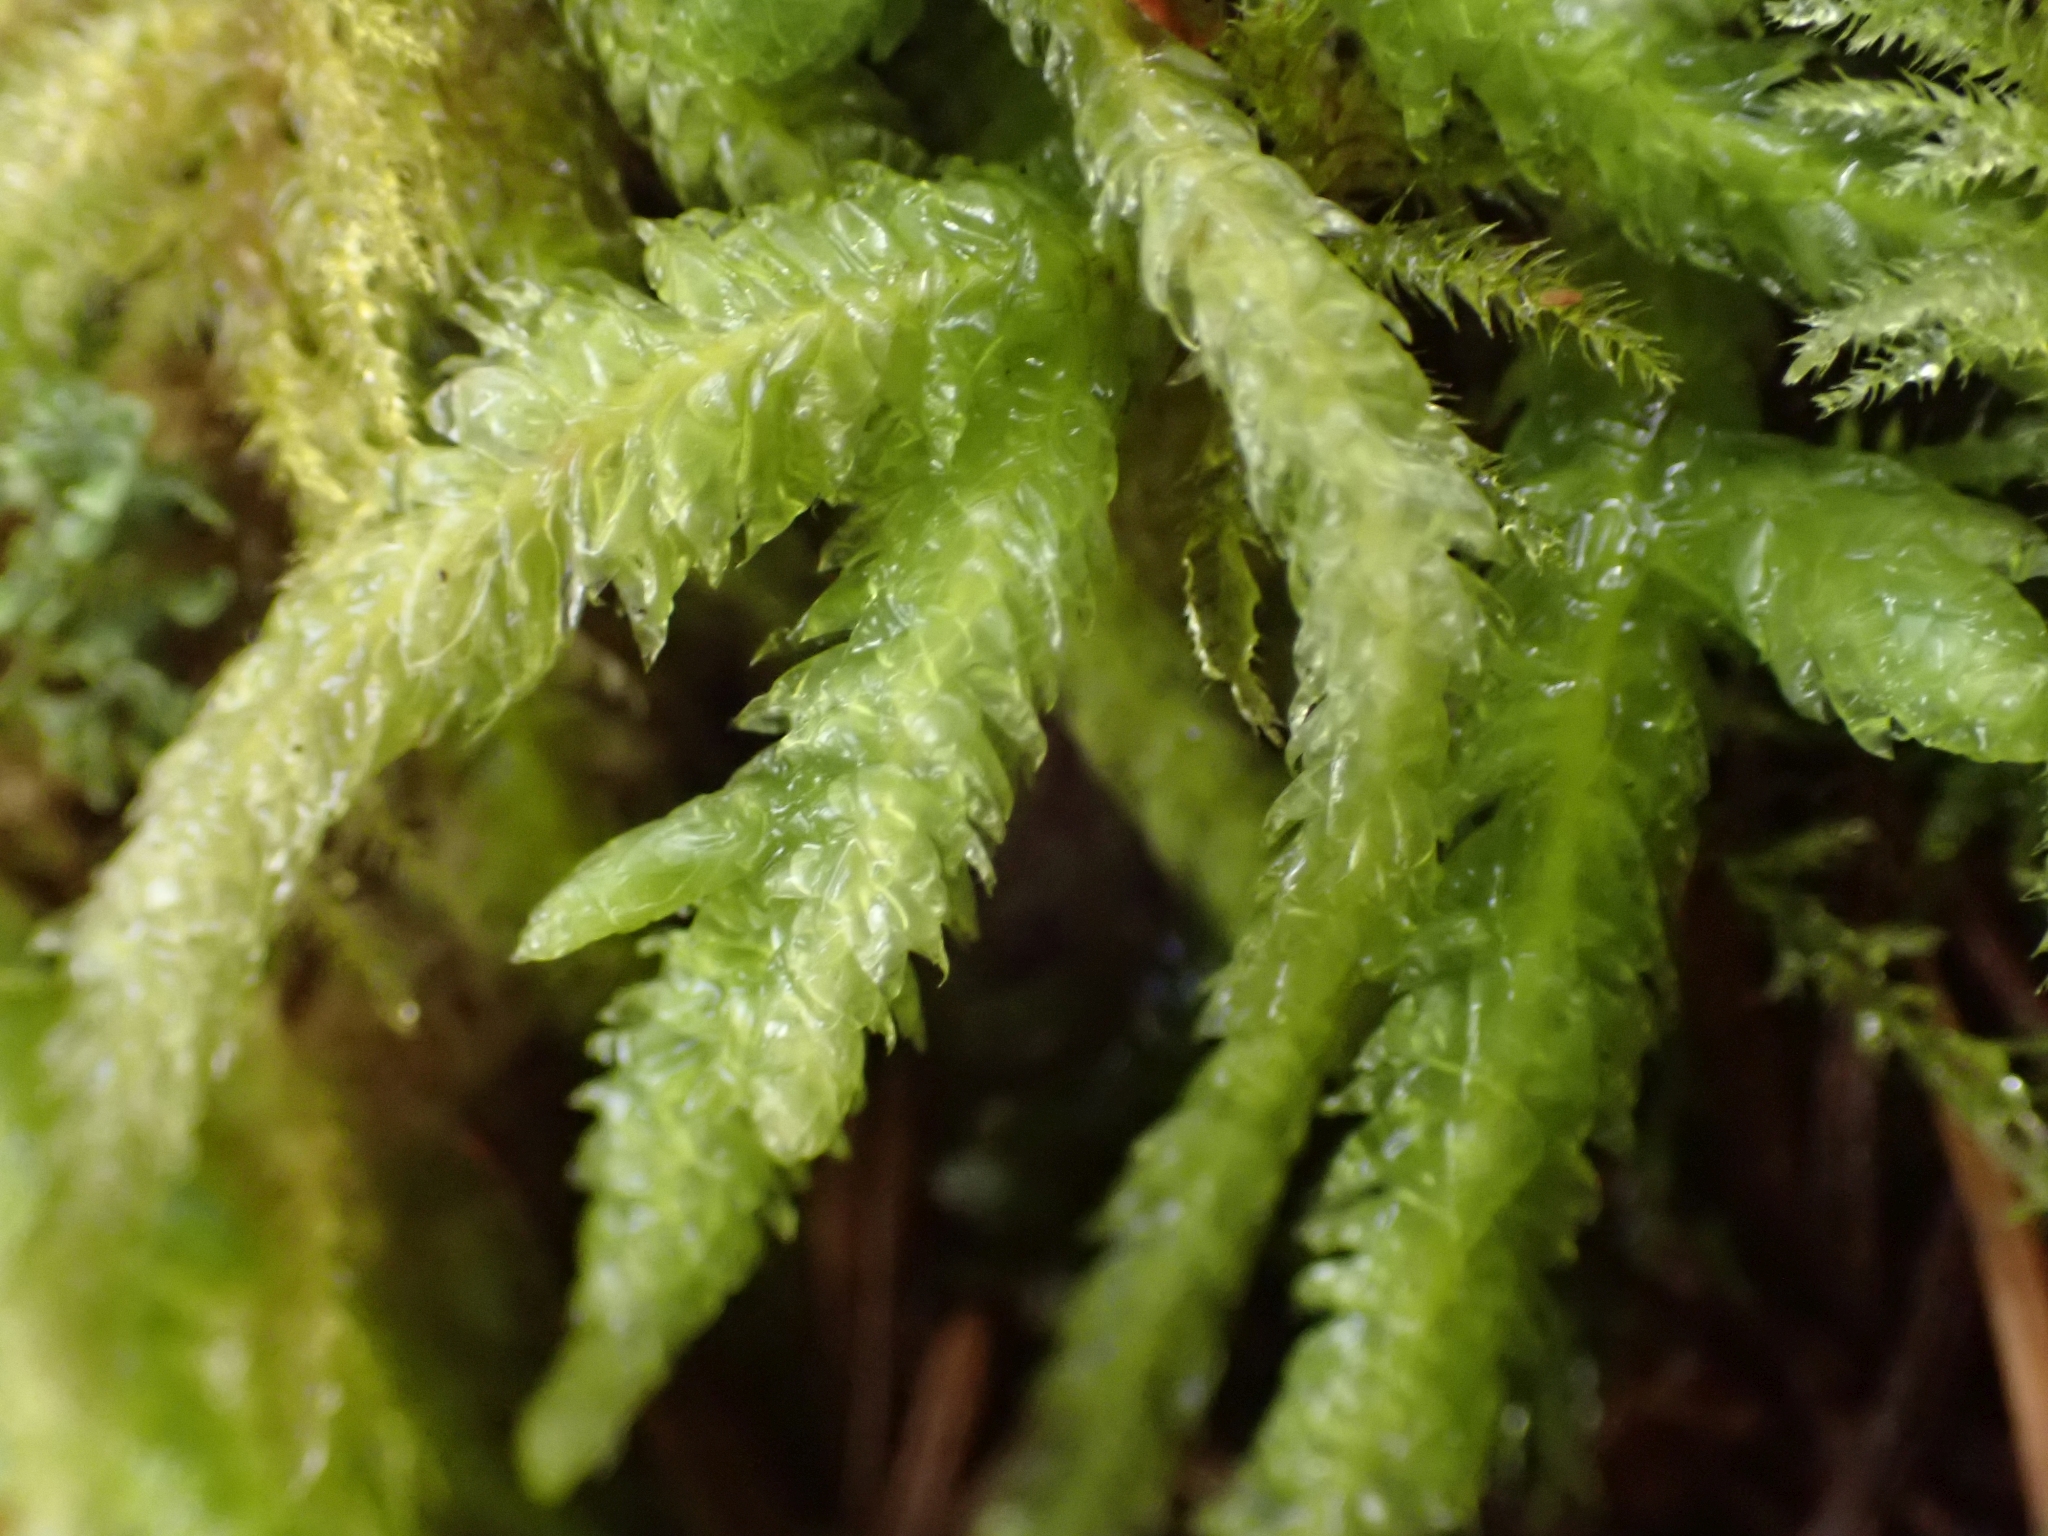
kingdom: Plantae
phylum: Bryophyta
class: Bryopsida
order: Hypnales
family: Plagiotheciaceae
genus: Plagiothecium
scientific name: Plagiothecium undulatum
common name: Waved silk-moss
